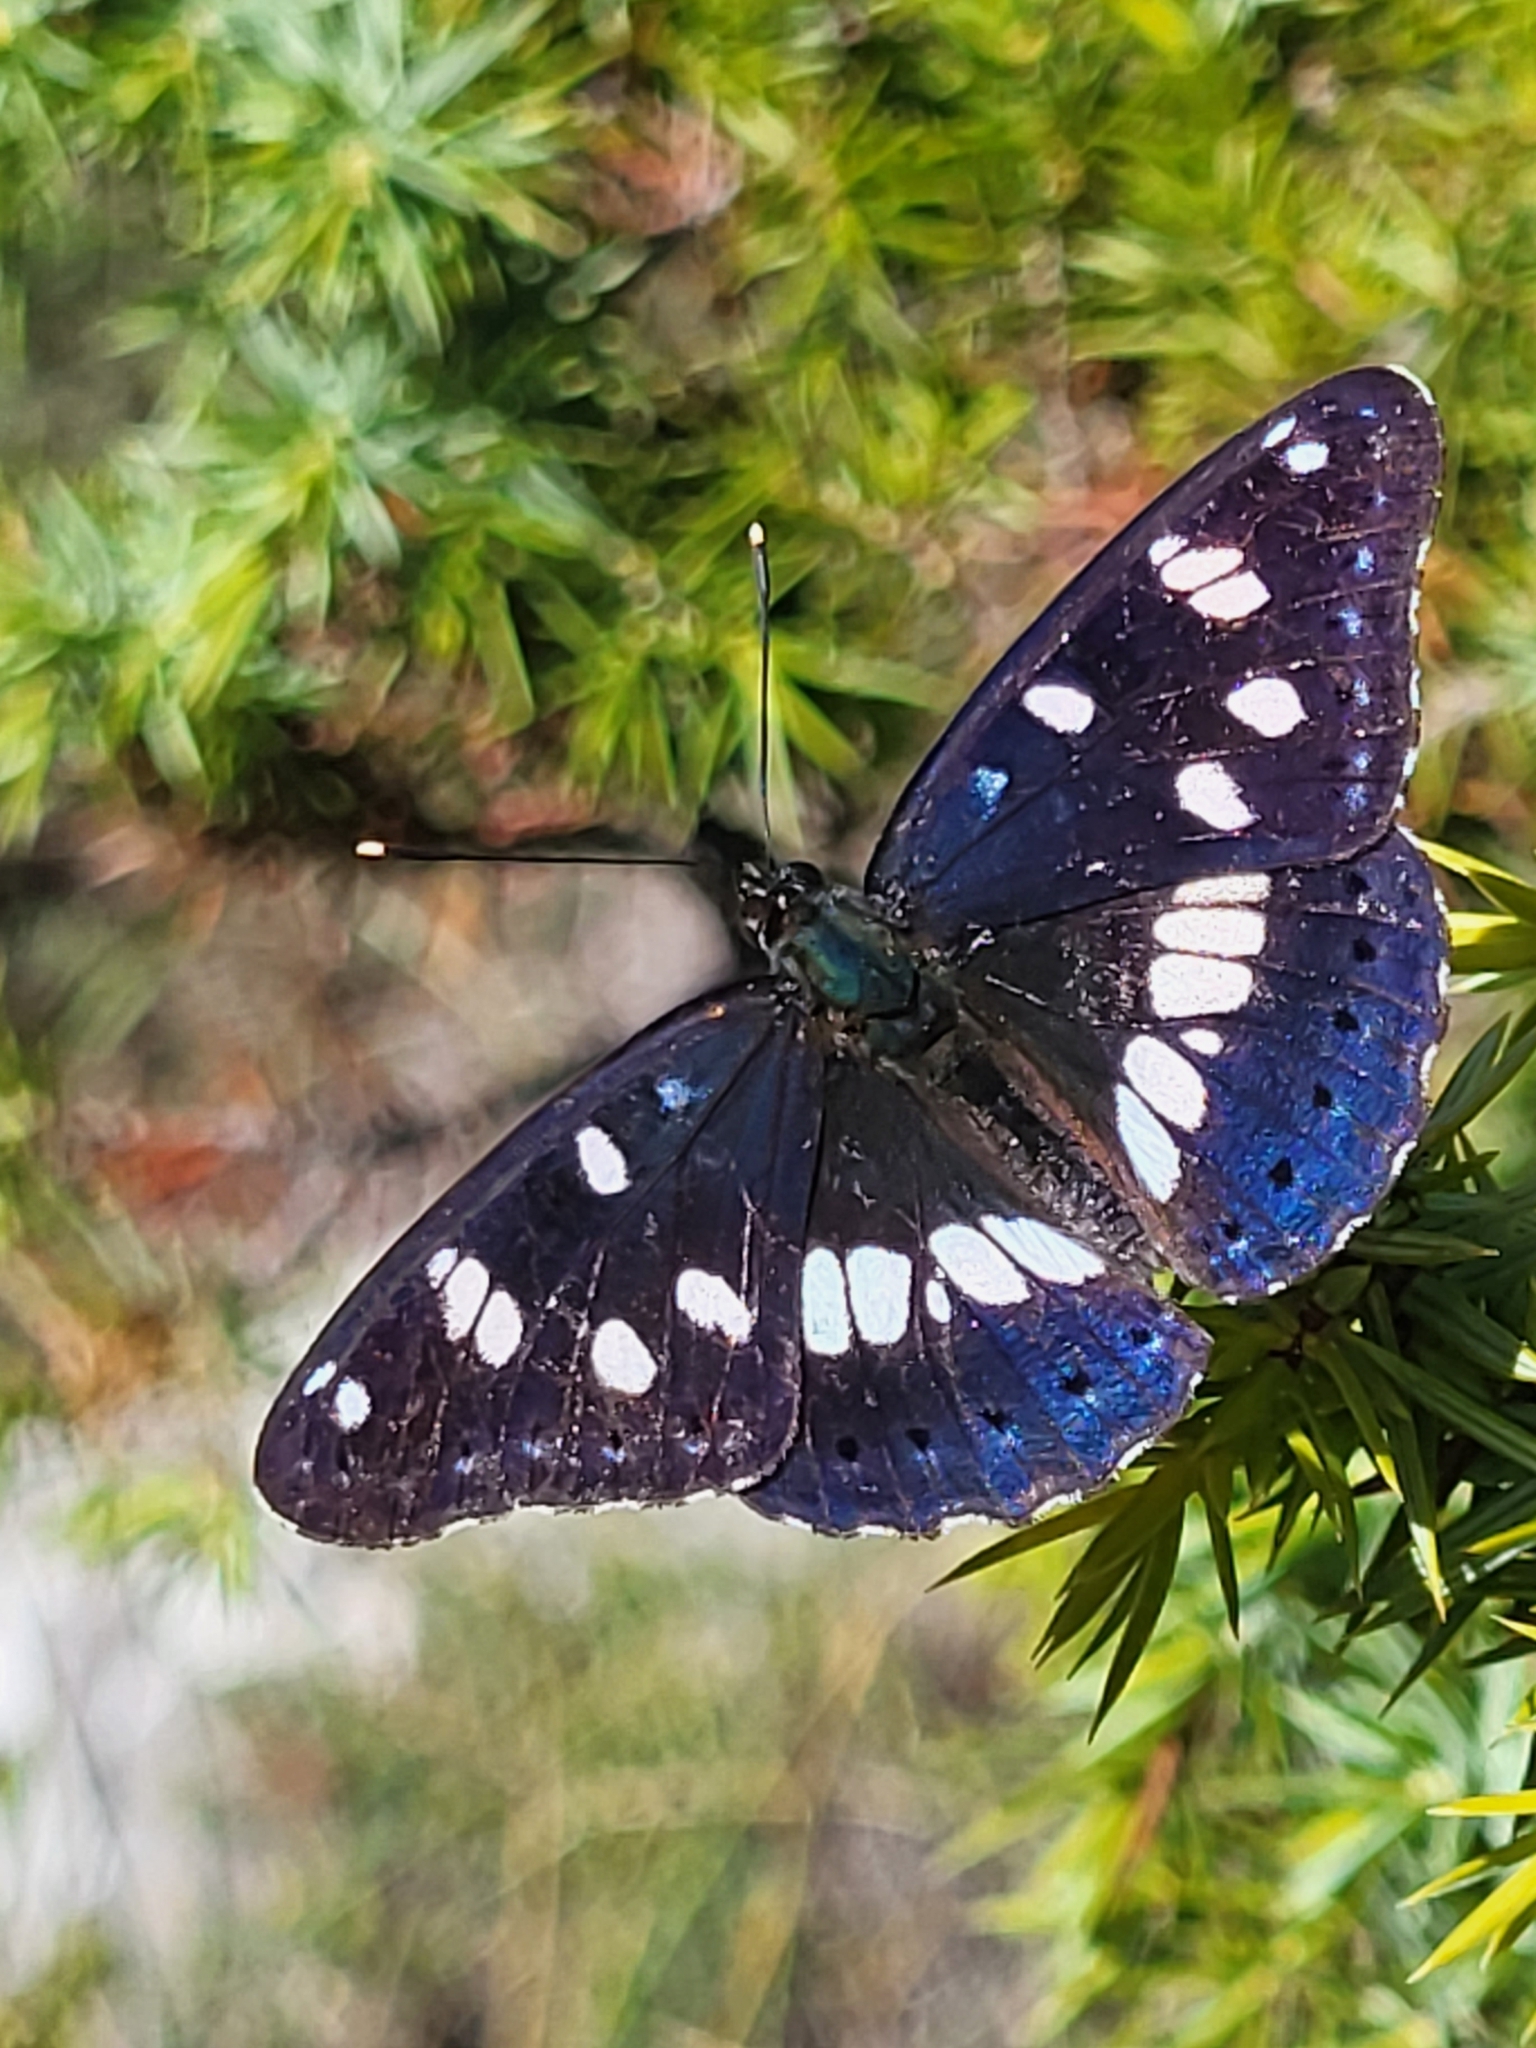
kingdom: Animalia
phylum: Arthropoda
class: Insecta
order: Lepidoptera
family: Nymphalidae
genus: Limenitis
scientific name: Limenitis reducta
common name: Southern white admiral
